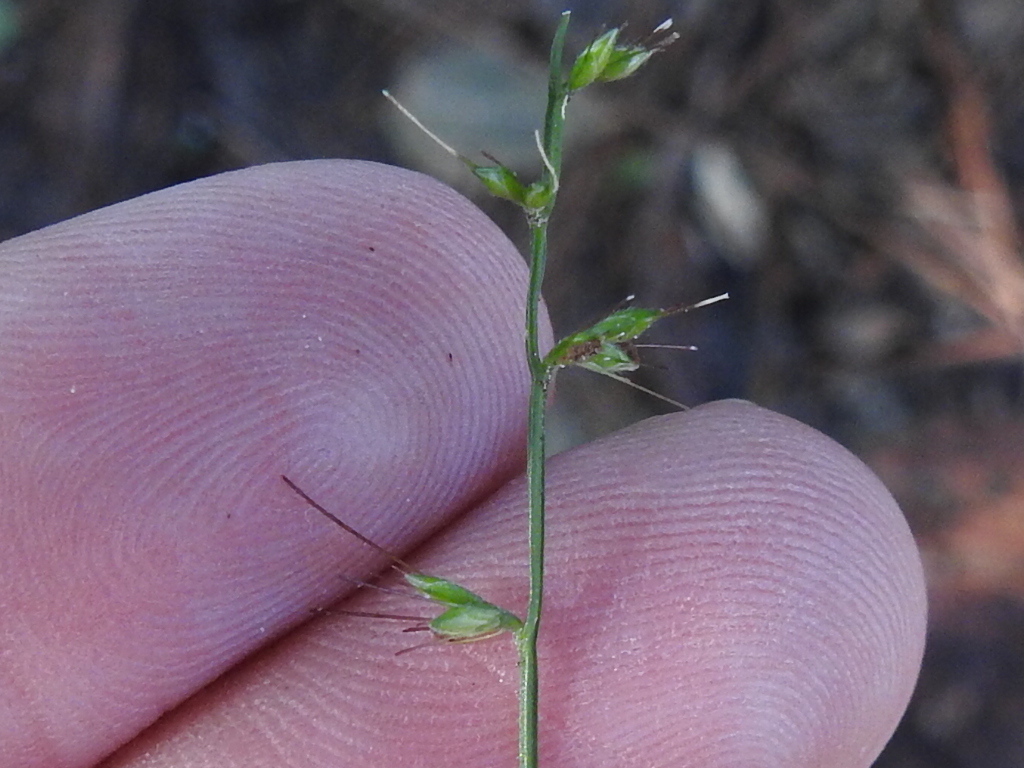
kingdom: Plantae
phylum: Tracheophyta
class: Liliopsida
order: Poales
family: Poaceae
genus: Oplismenus
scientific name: Oplismenus hirtellus
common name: Basketgrass
